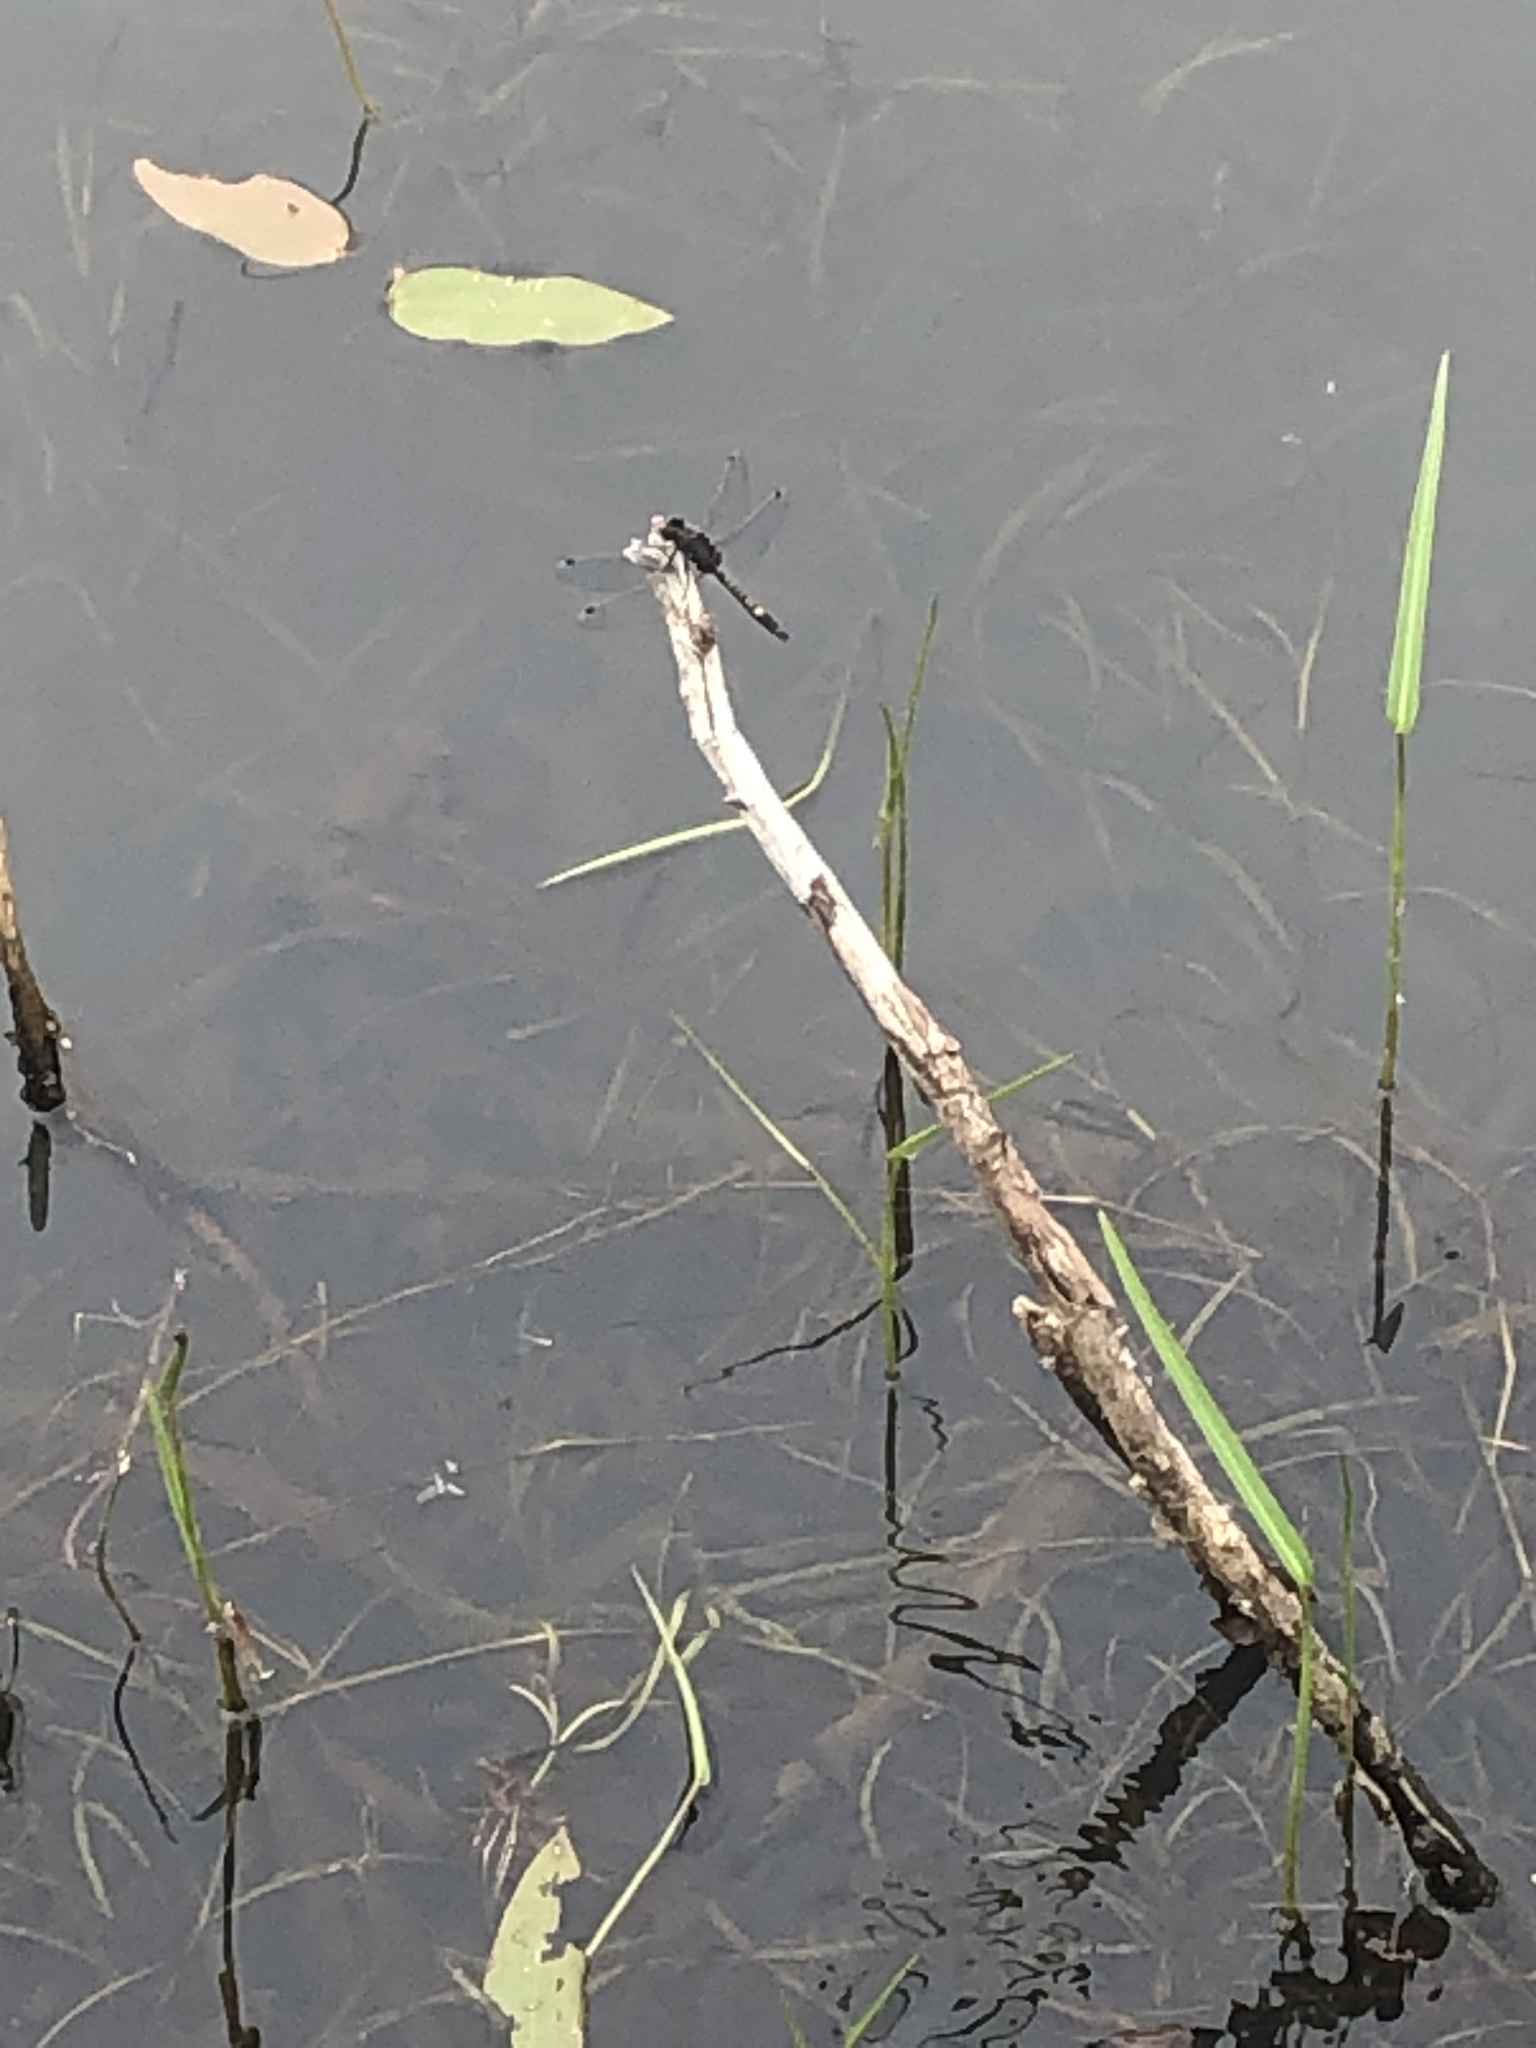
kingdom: Animalia
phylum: Arthropoda
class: Insecta
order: Odonata
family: Libellulidae
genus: Leucorrhinia
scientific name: Leucorrhinia intacta
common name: Dot-tailed whiteface
